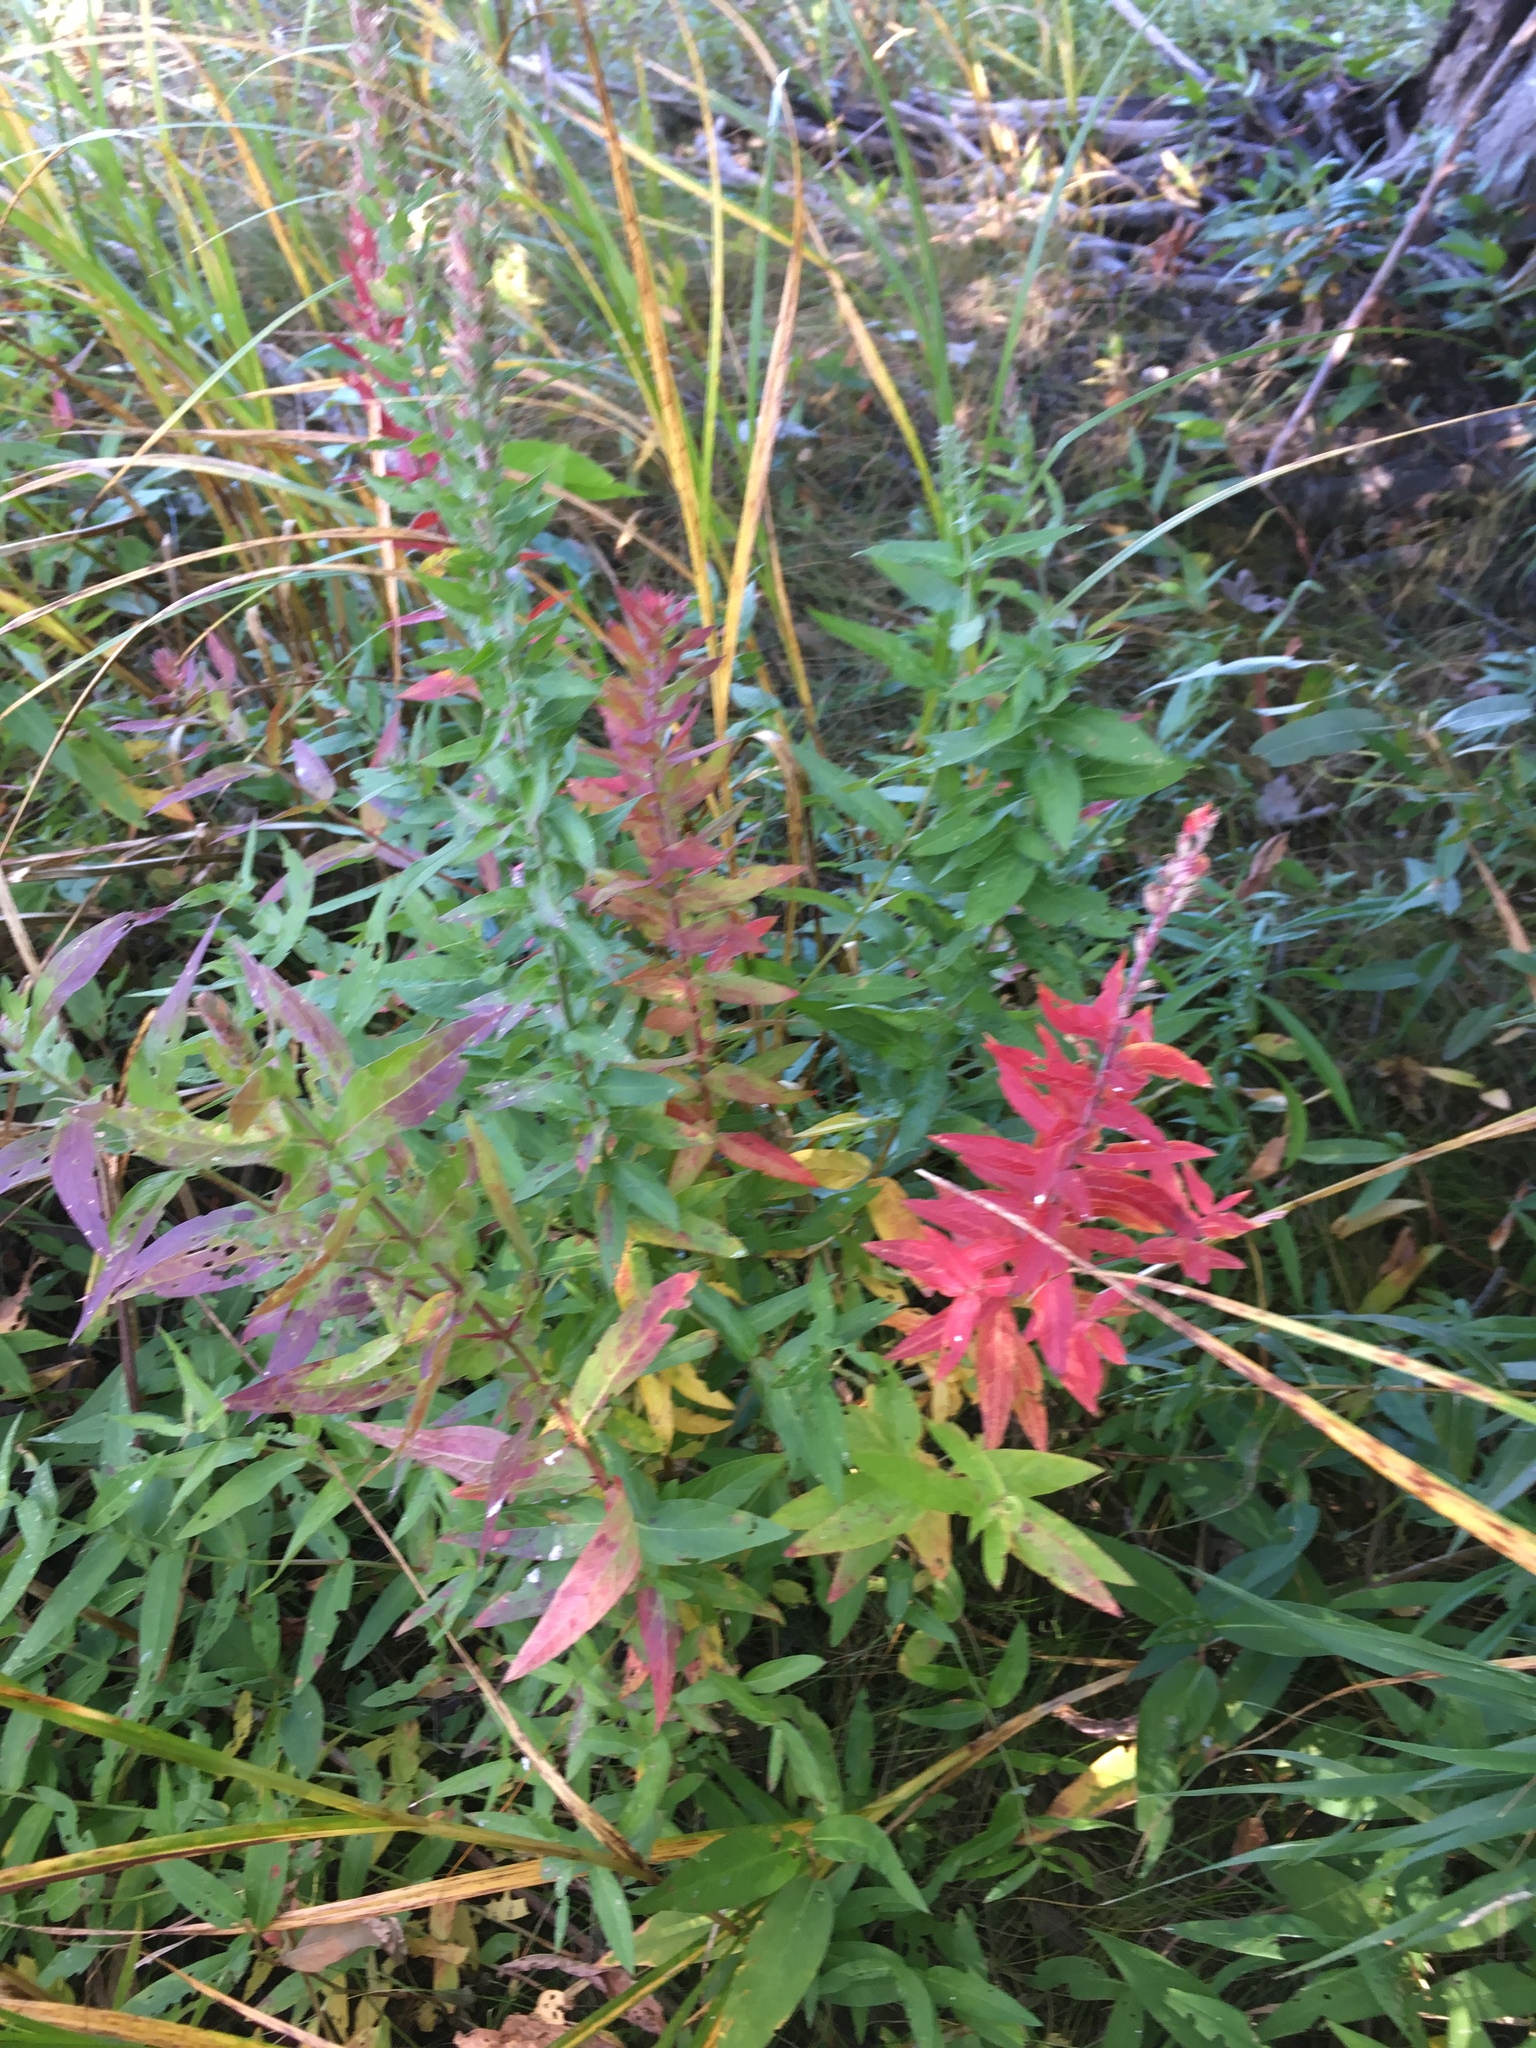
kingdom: Plantae
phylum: Tracheophyta
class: Magnoliopsida
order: Myrtales
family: Lythraceae
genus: Lythrum
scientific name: Lythrum salicaria
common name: Purple loosestrife
